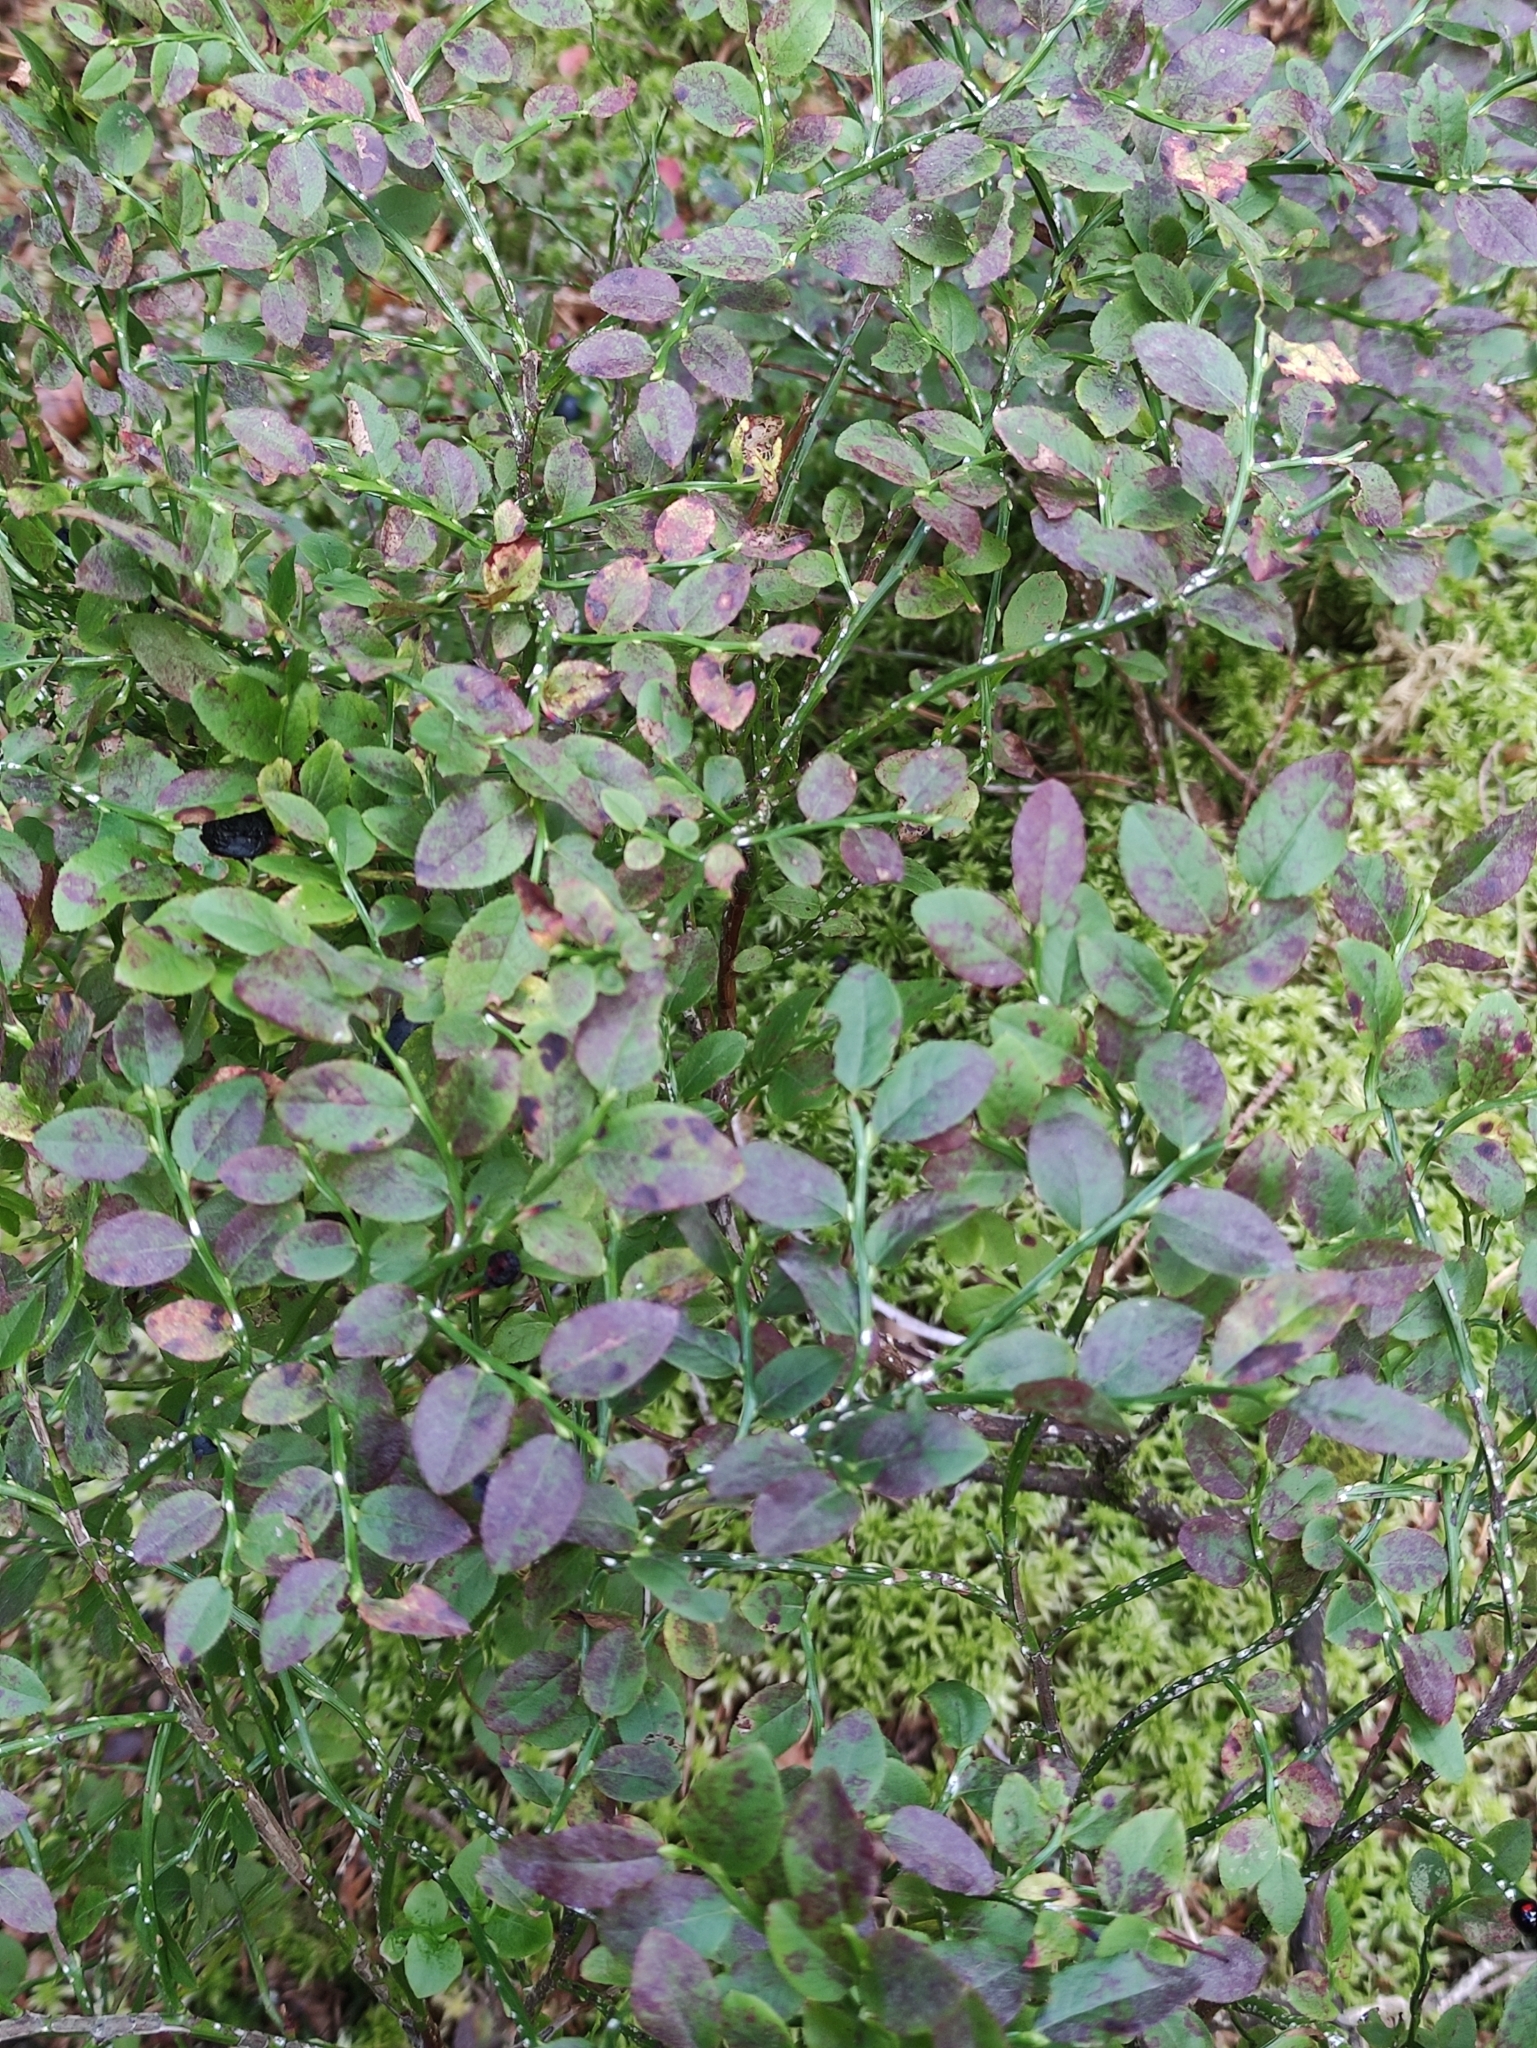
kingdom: Plantae
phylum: Tracheophyta
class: Magnoliopsida
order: Ericales
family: Ericaceae
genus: Vaccinium
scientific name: Vaccinium myrtillus
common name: Bilberry
